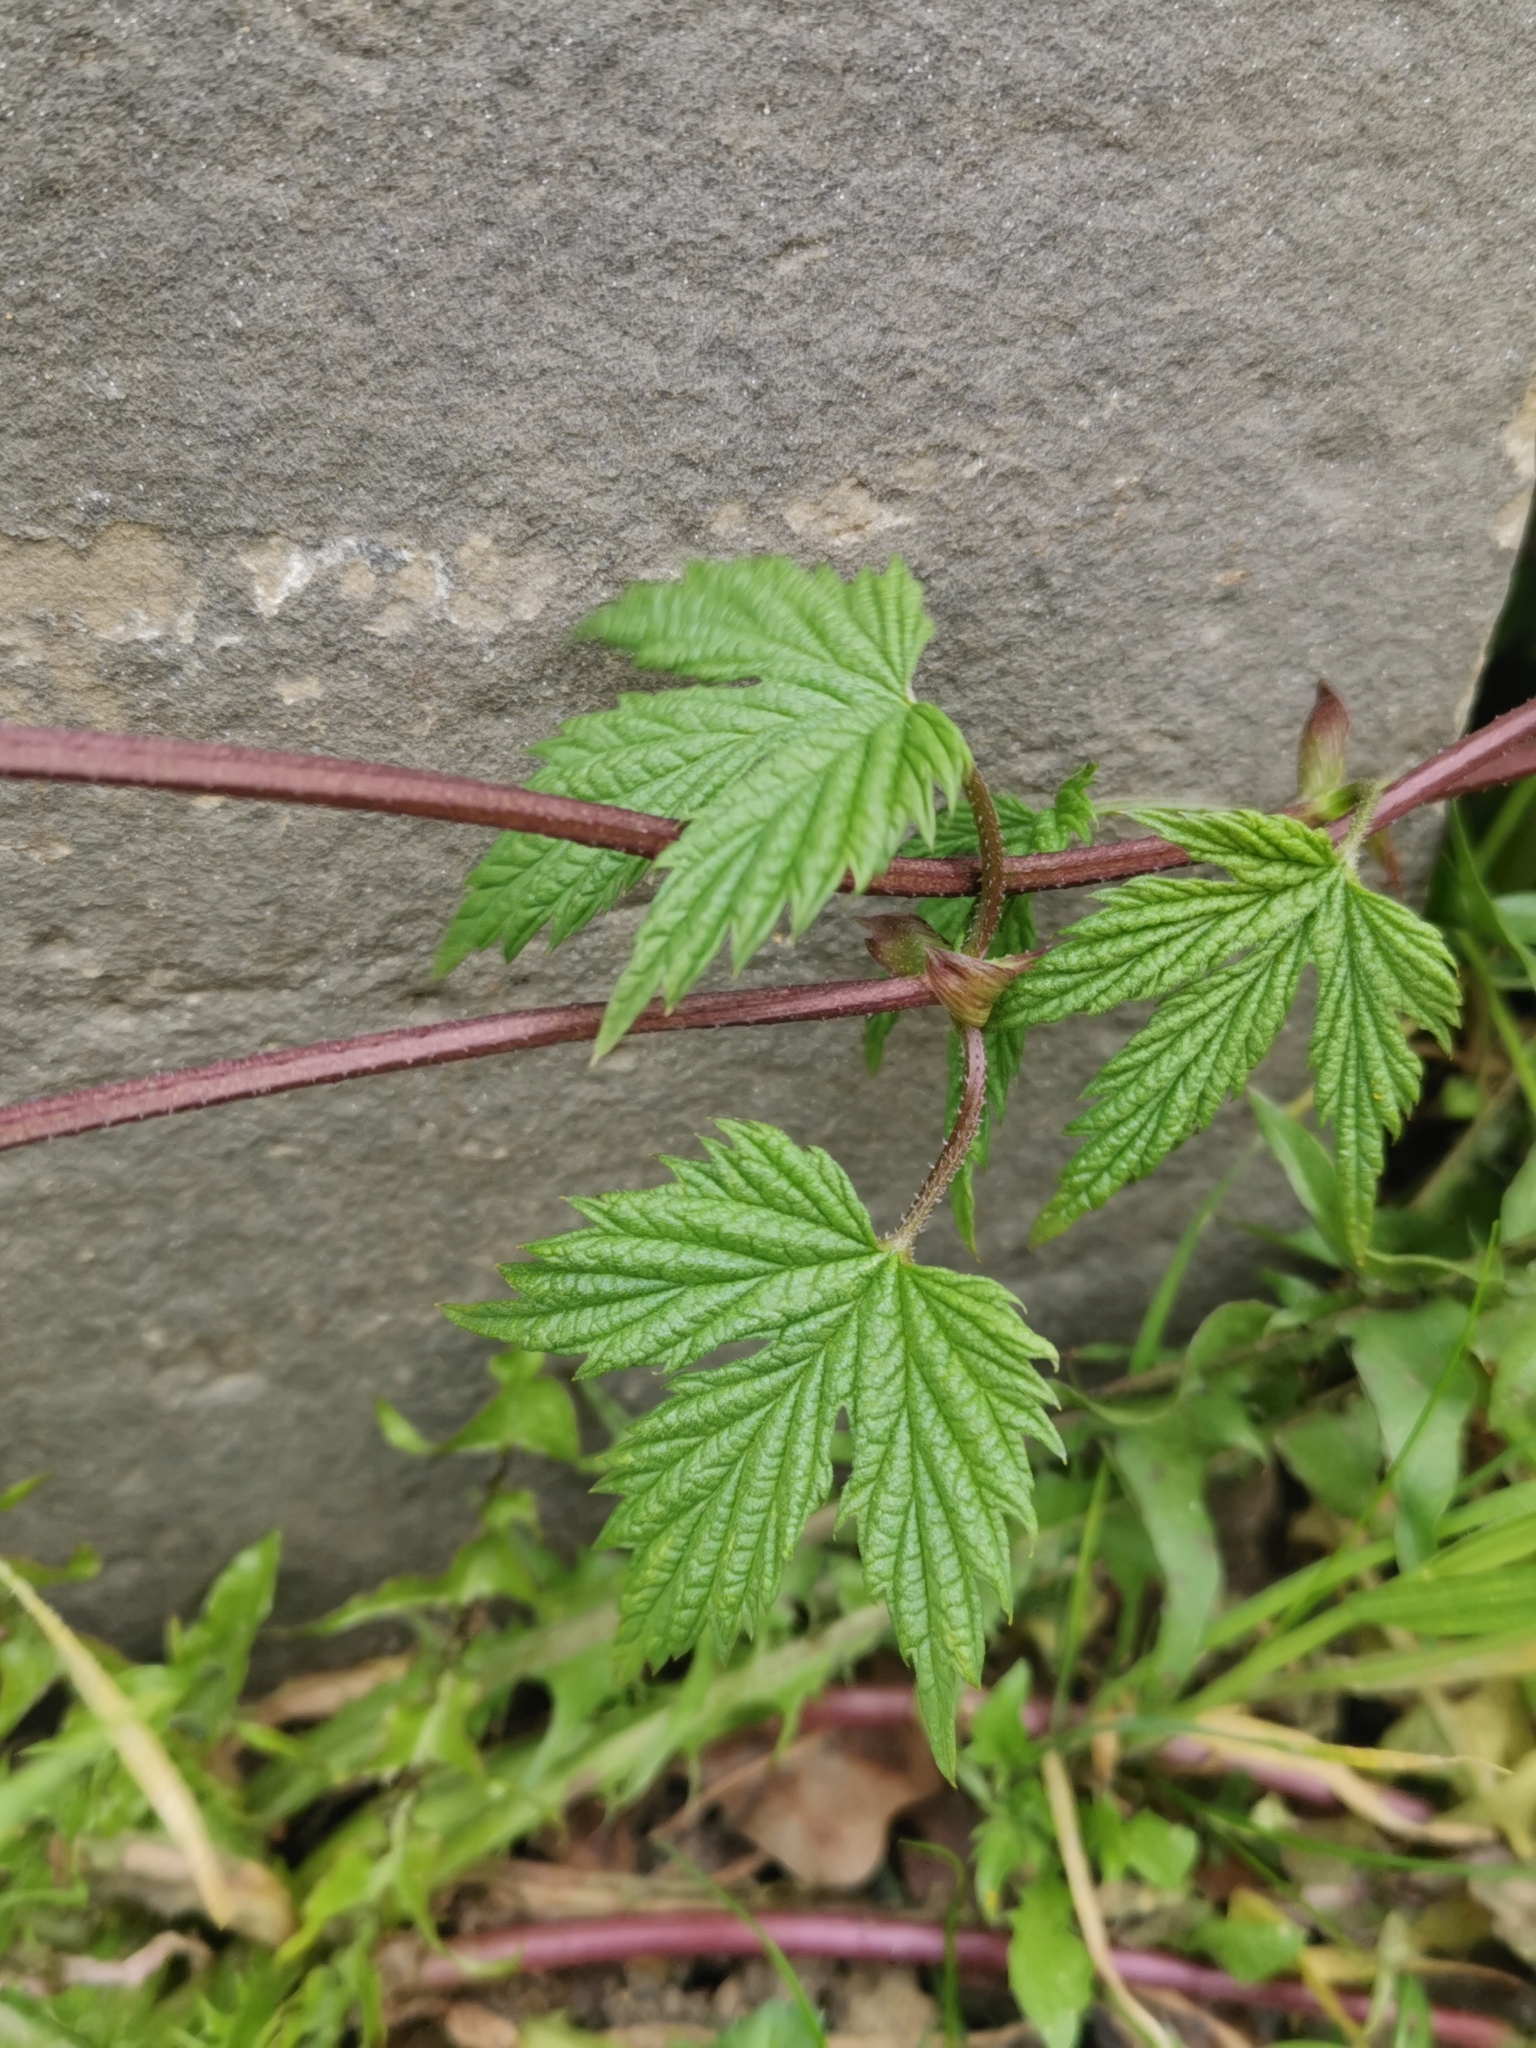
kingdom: Plantae
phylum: Tracheophyta
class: Magnoliopsida
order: Rosales
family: Cannabaceae
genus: Humulus
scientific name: Humulus lupulus
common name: Hop
